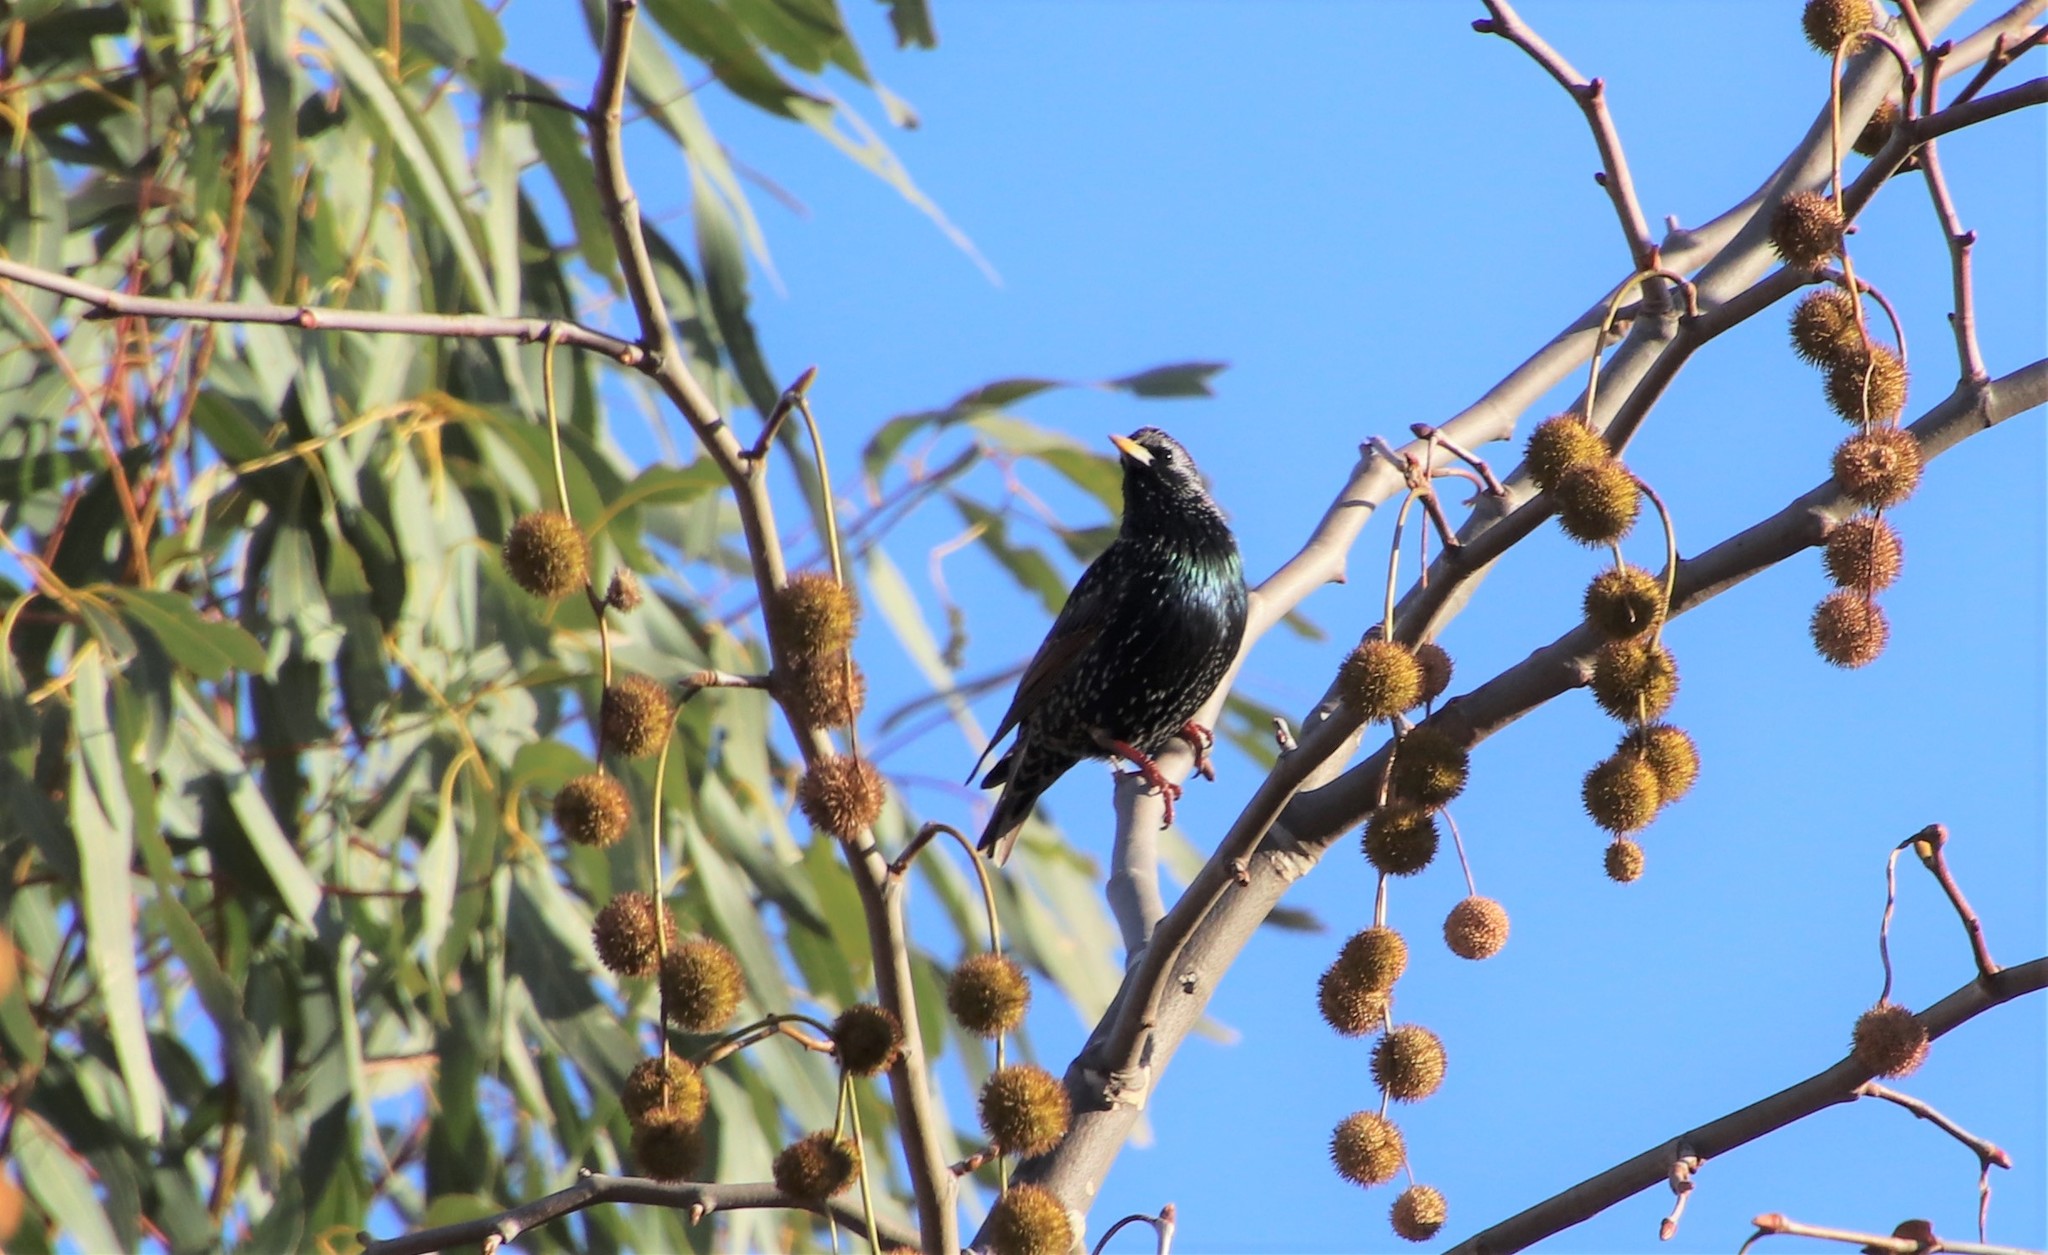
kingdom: Animalia
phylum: Chordata
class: Aves
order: Passeriformes
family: Sturnidae
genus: Sturnus
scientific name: Sturnus vulgaris
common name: Common starling
